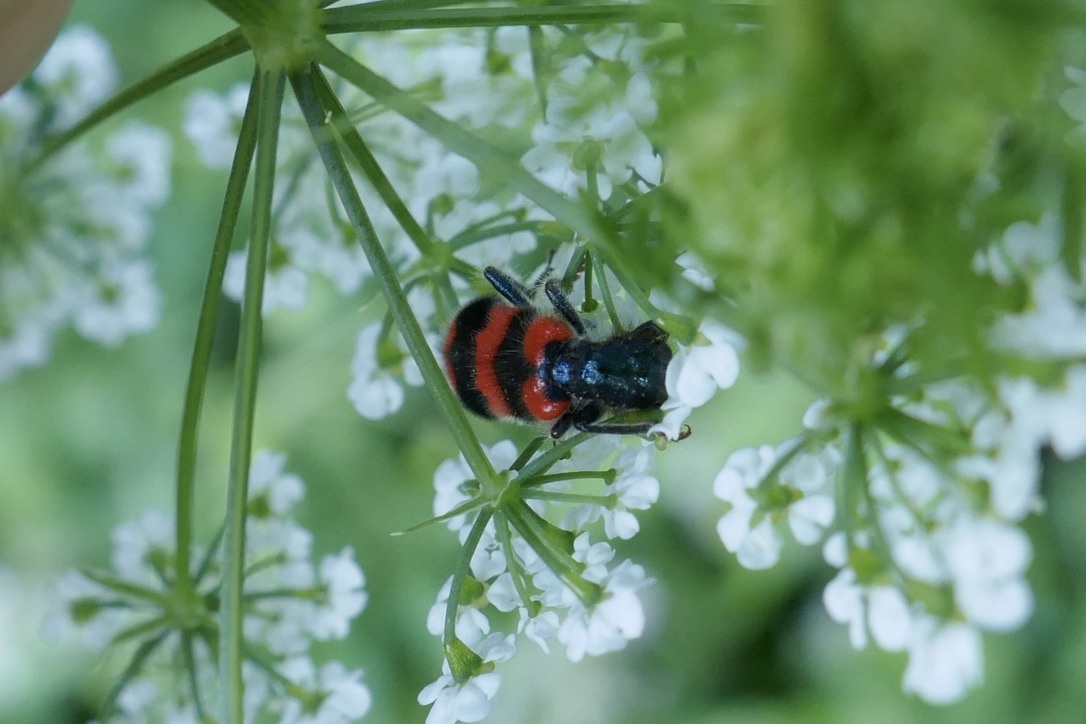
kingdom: Animalia
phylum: Arthropoda
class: Insecta
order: Coleoptera
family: Cleridae
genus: Trichodes
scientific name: Trichodes apiarius
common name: Bee-eating beetle
